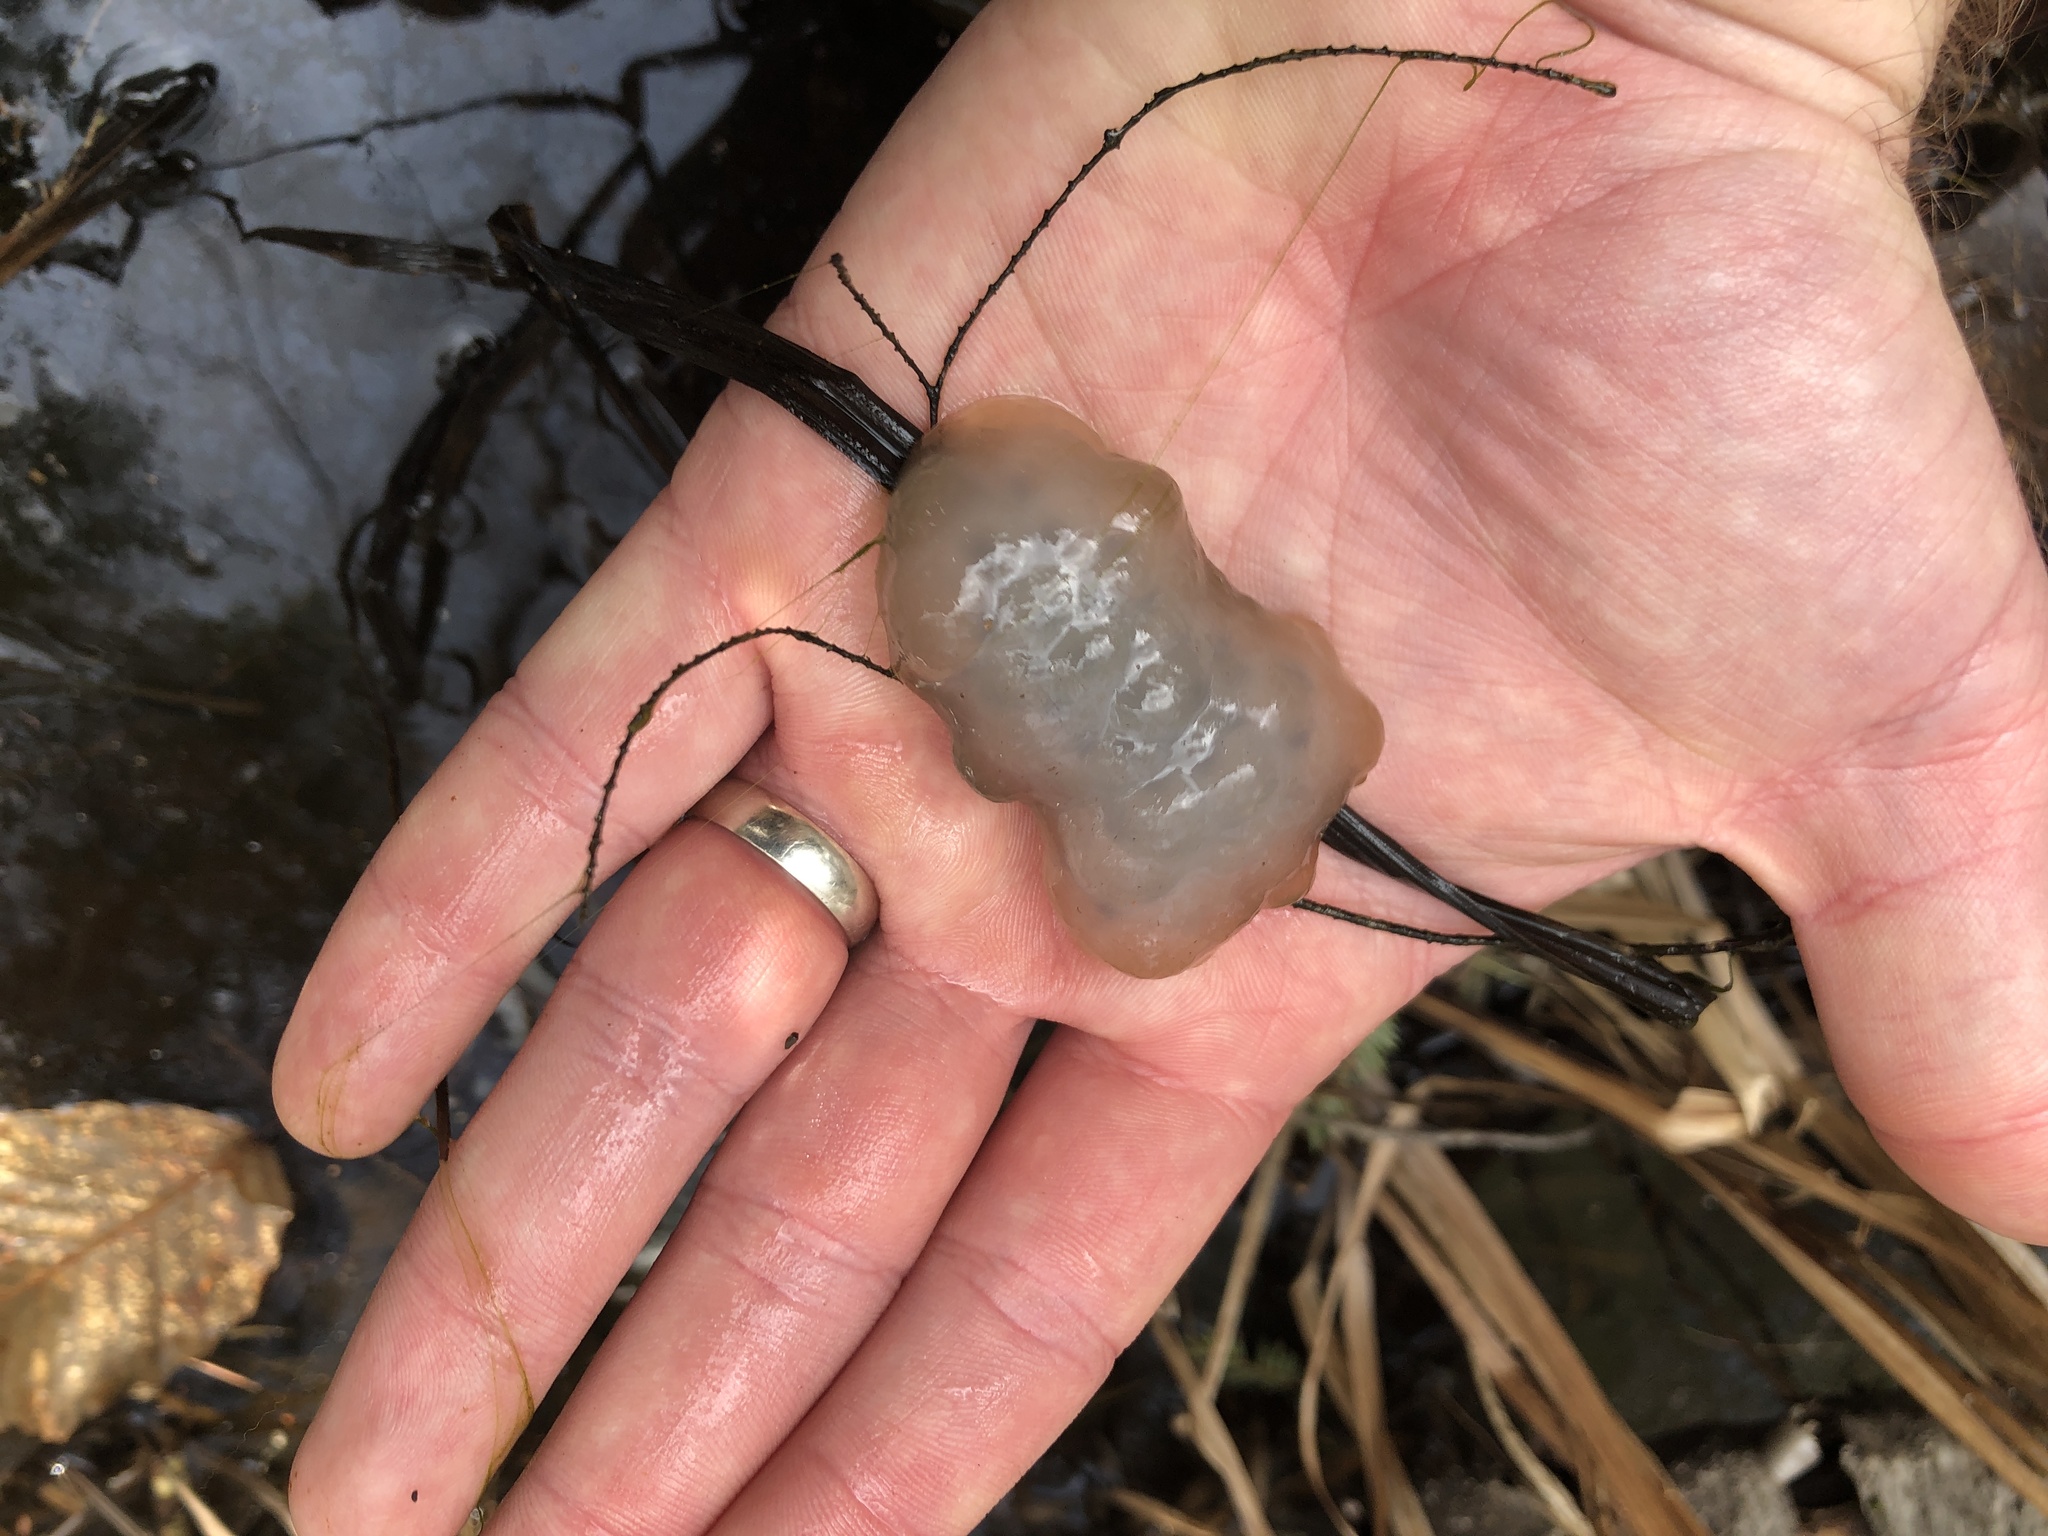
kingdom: Animalia
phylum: Chordata
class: Amphibia
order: Caudata
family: Ambystomatidae
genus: Ambystoma
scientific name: Ambystoma maculatum
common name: Spotted salamander
